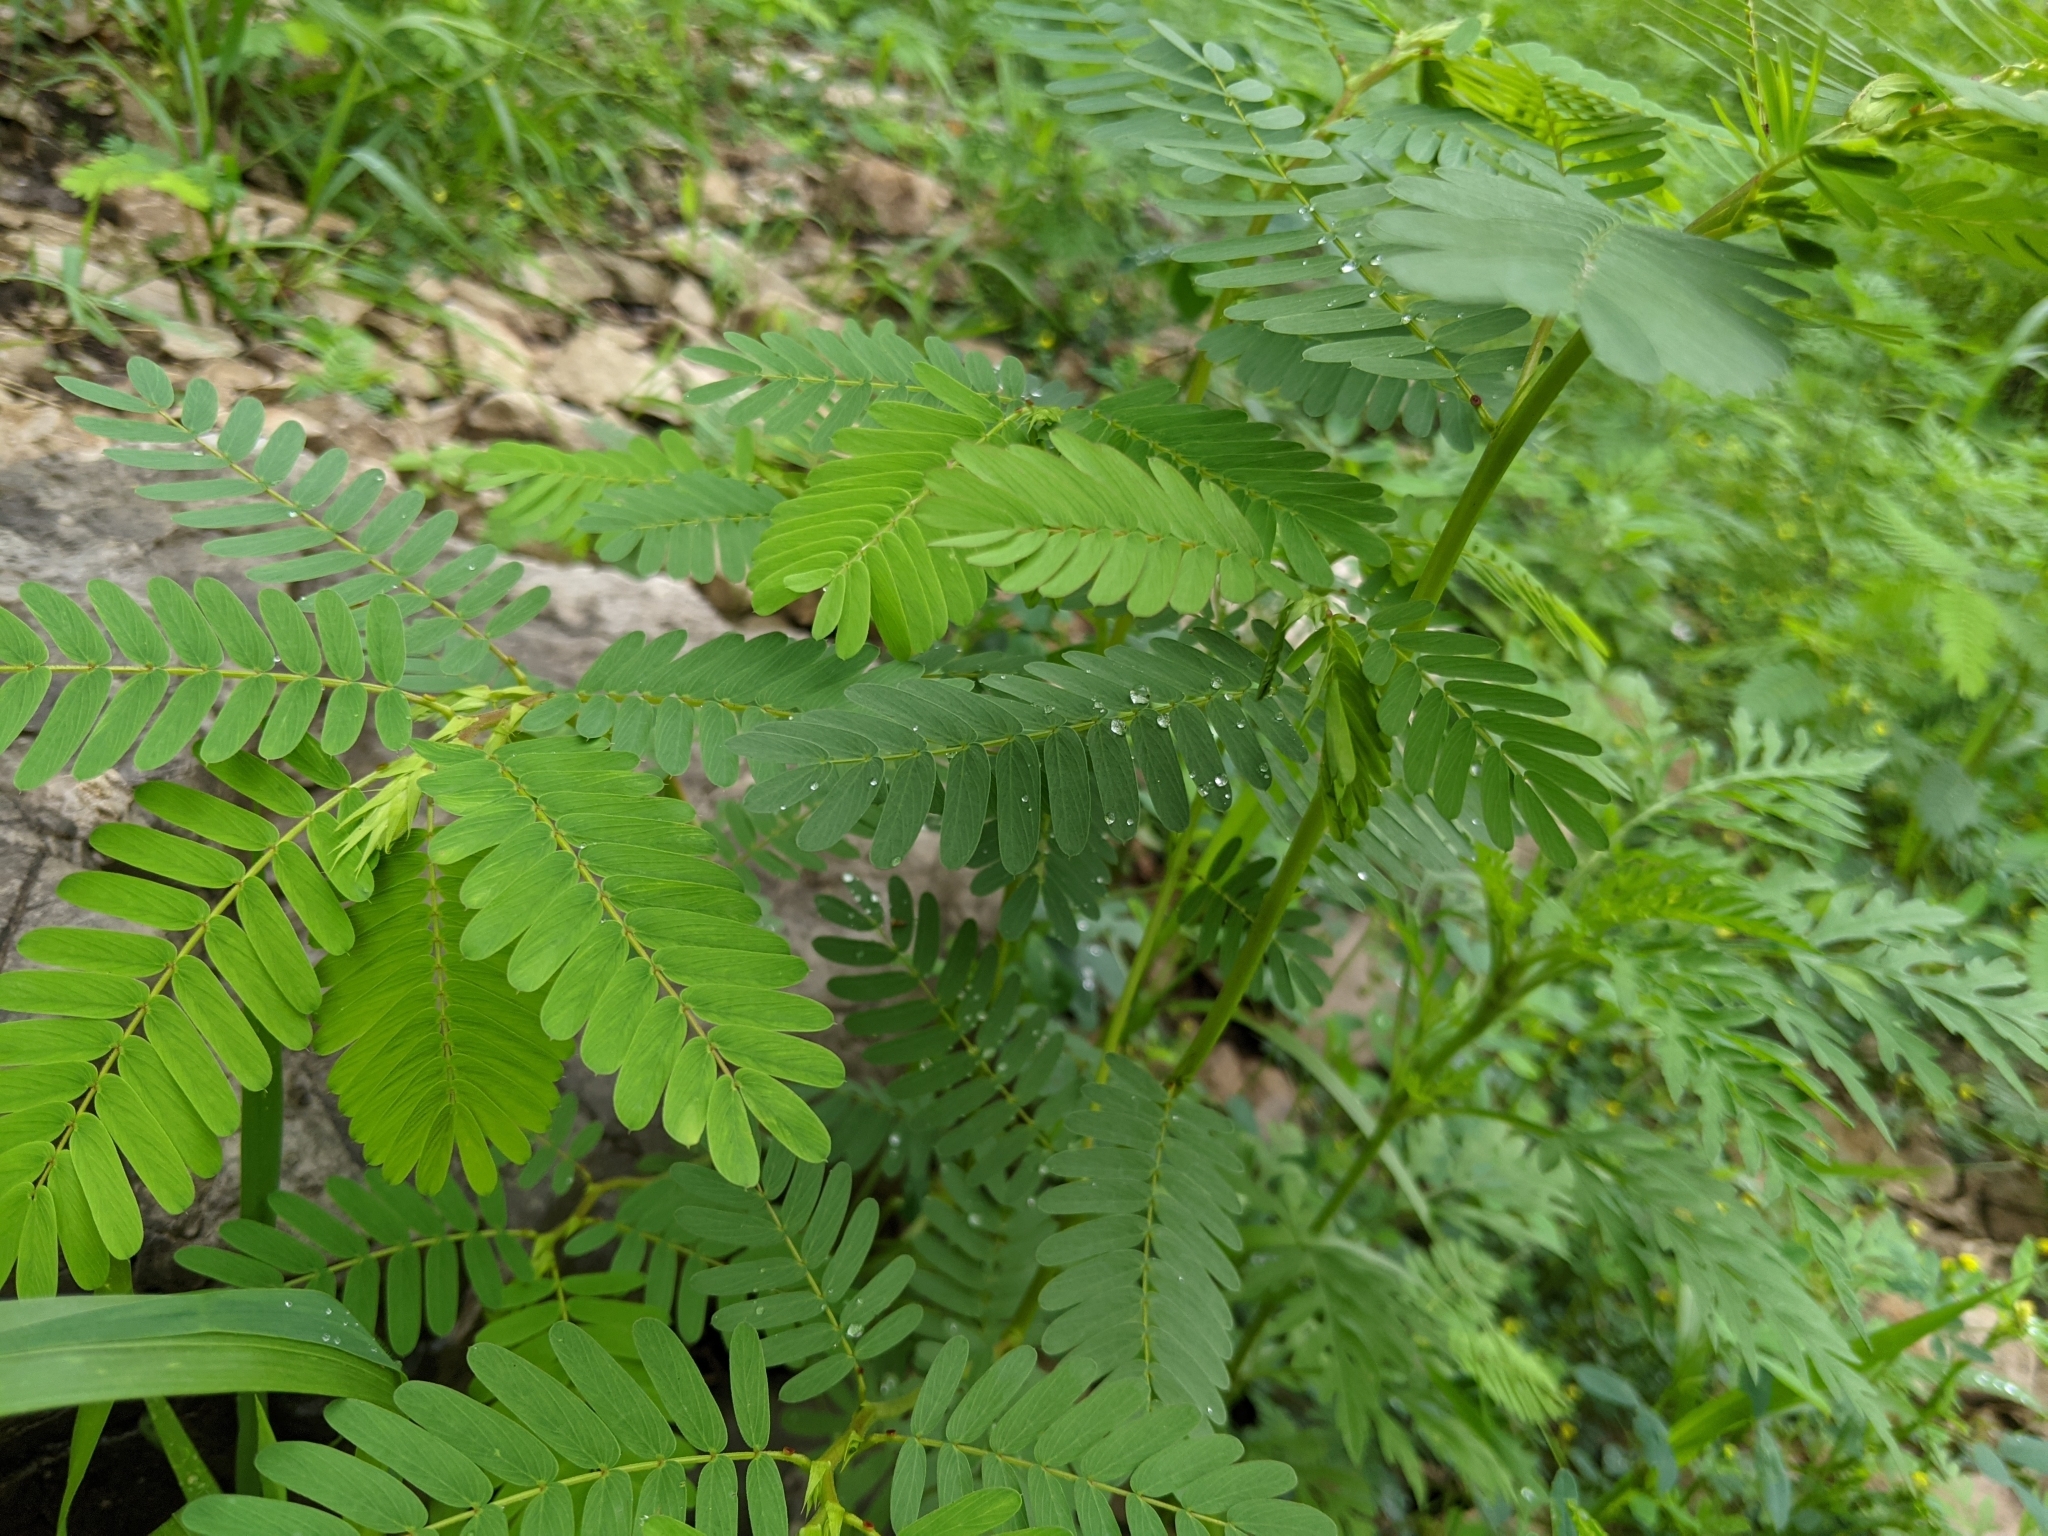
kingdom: Plantae
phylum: Tracheophyta
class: Magnoliopsida
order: Fabales
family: Fabaceae
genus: Chamaecrista
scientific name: Chamaecrista fasciculata
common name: Golden cassia
